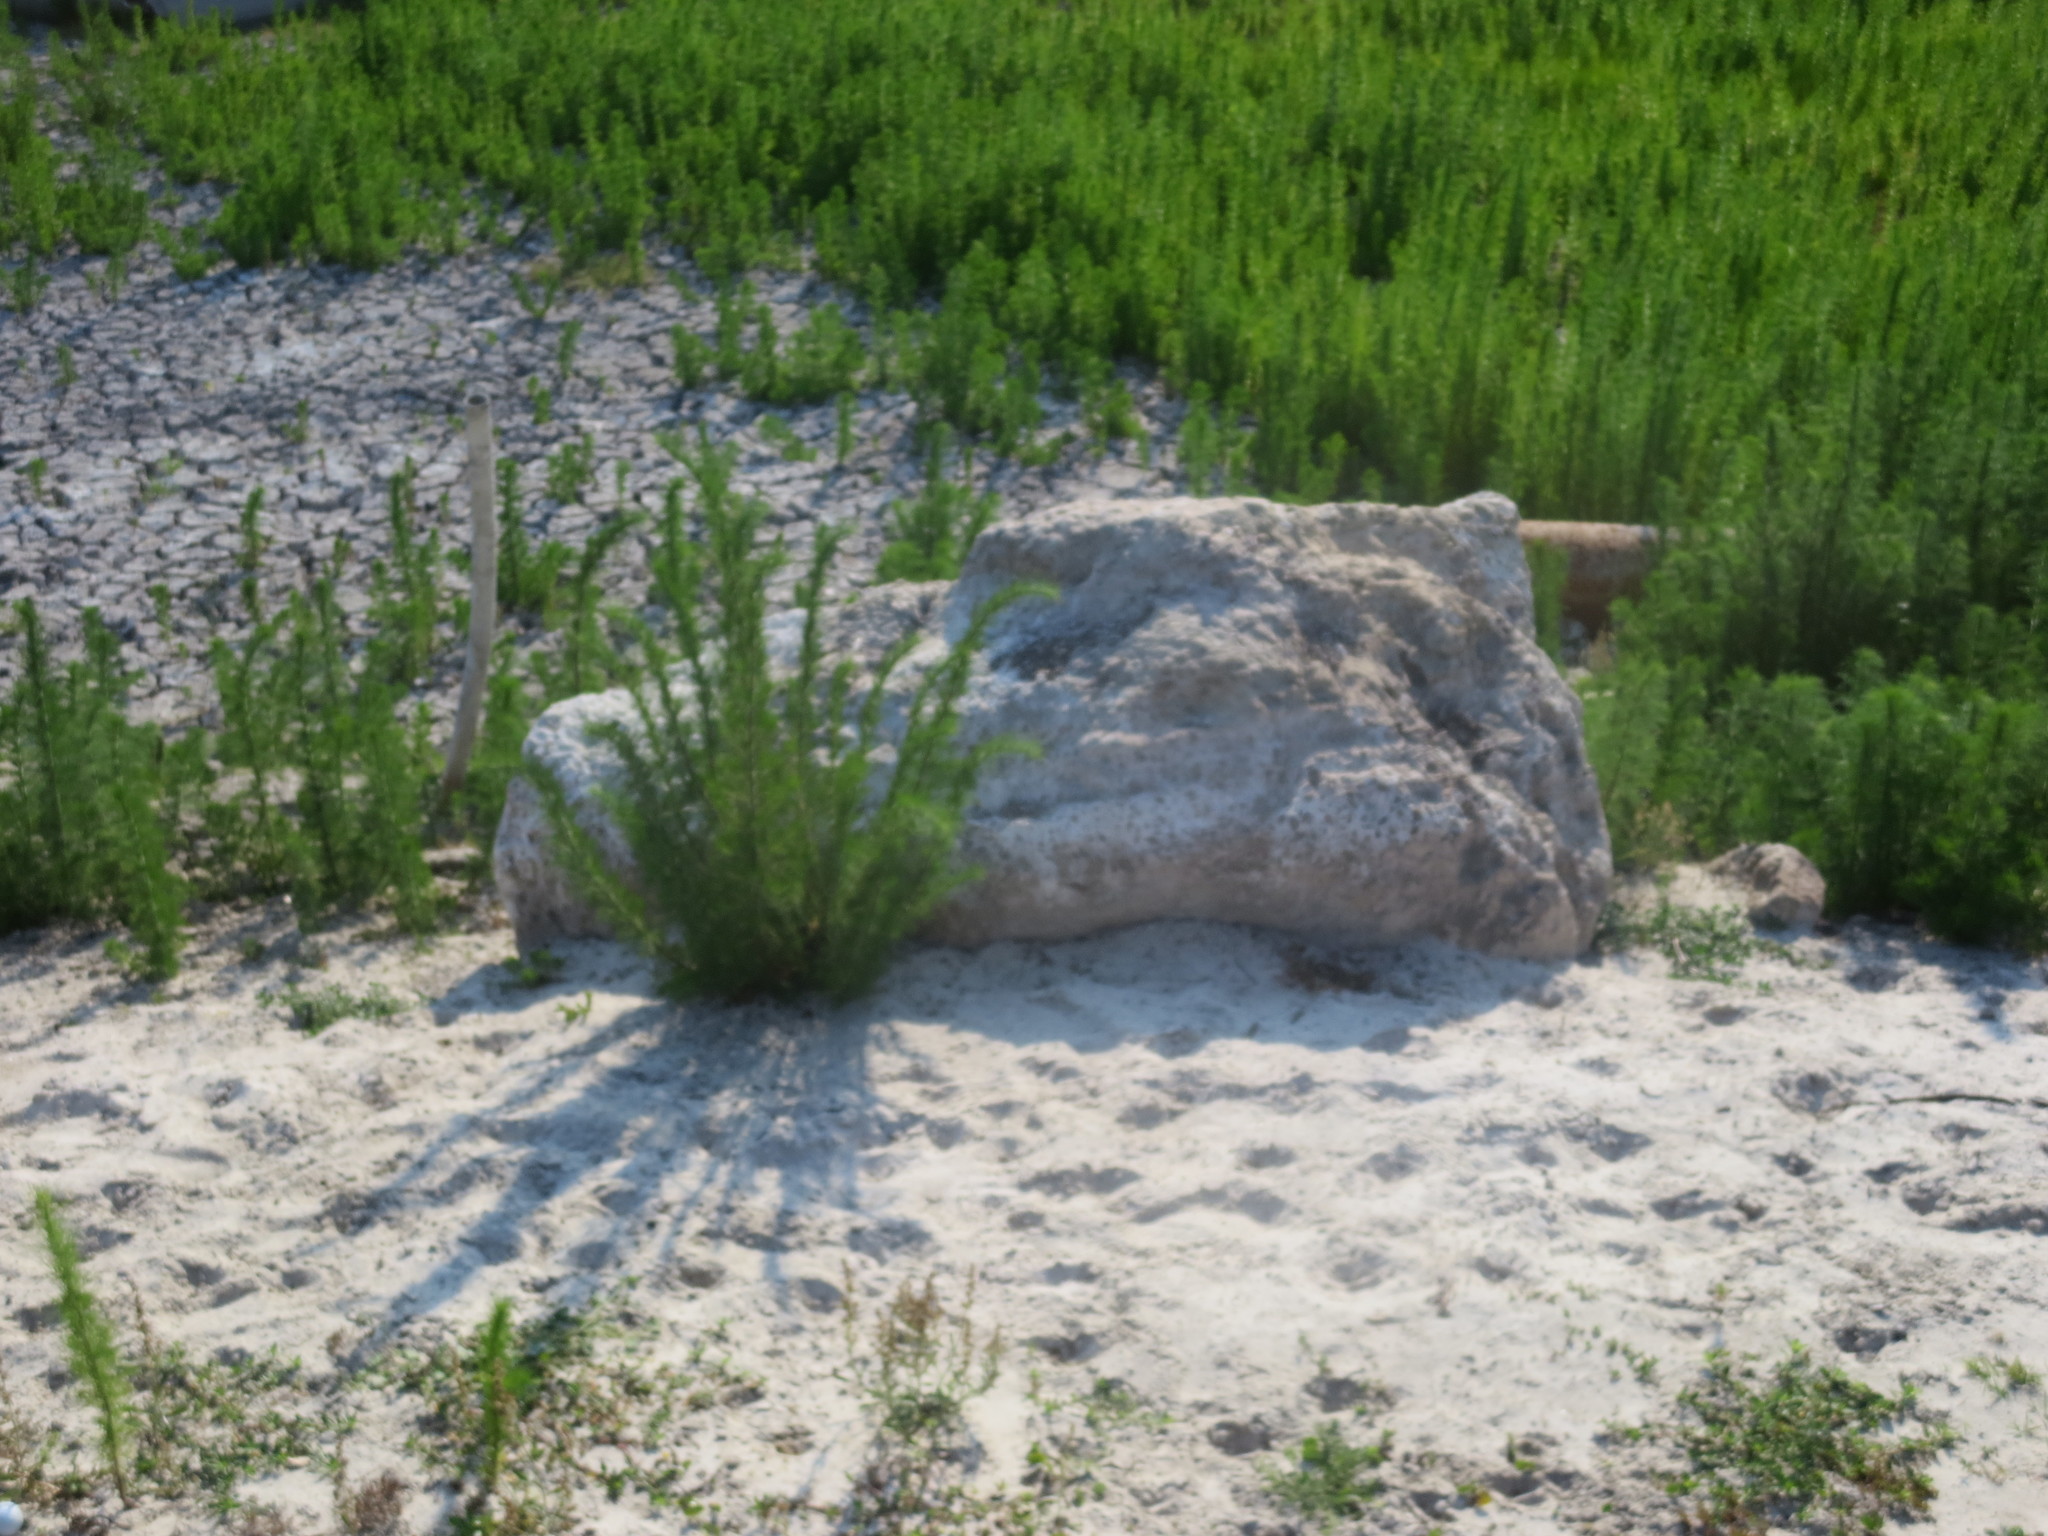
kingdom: Plantae
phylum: Tracheophyta
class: Magnoliopsida
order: Asterales
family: Asteraceae
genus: Eupatorium
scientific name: Eupatorium capillifolium
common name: Dog-fennel
